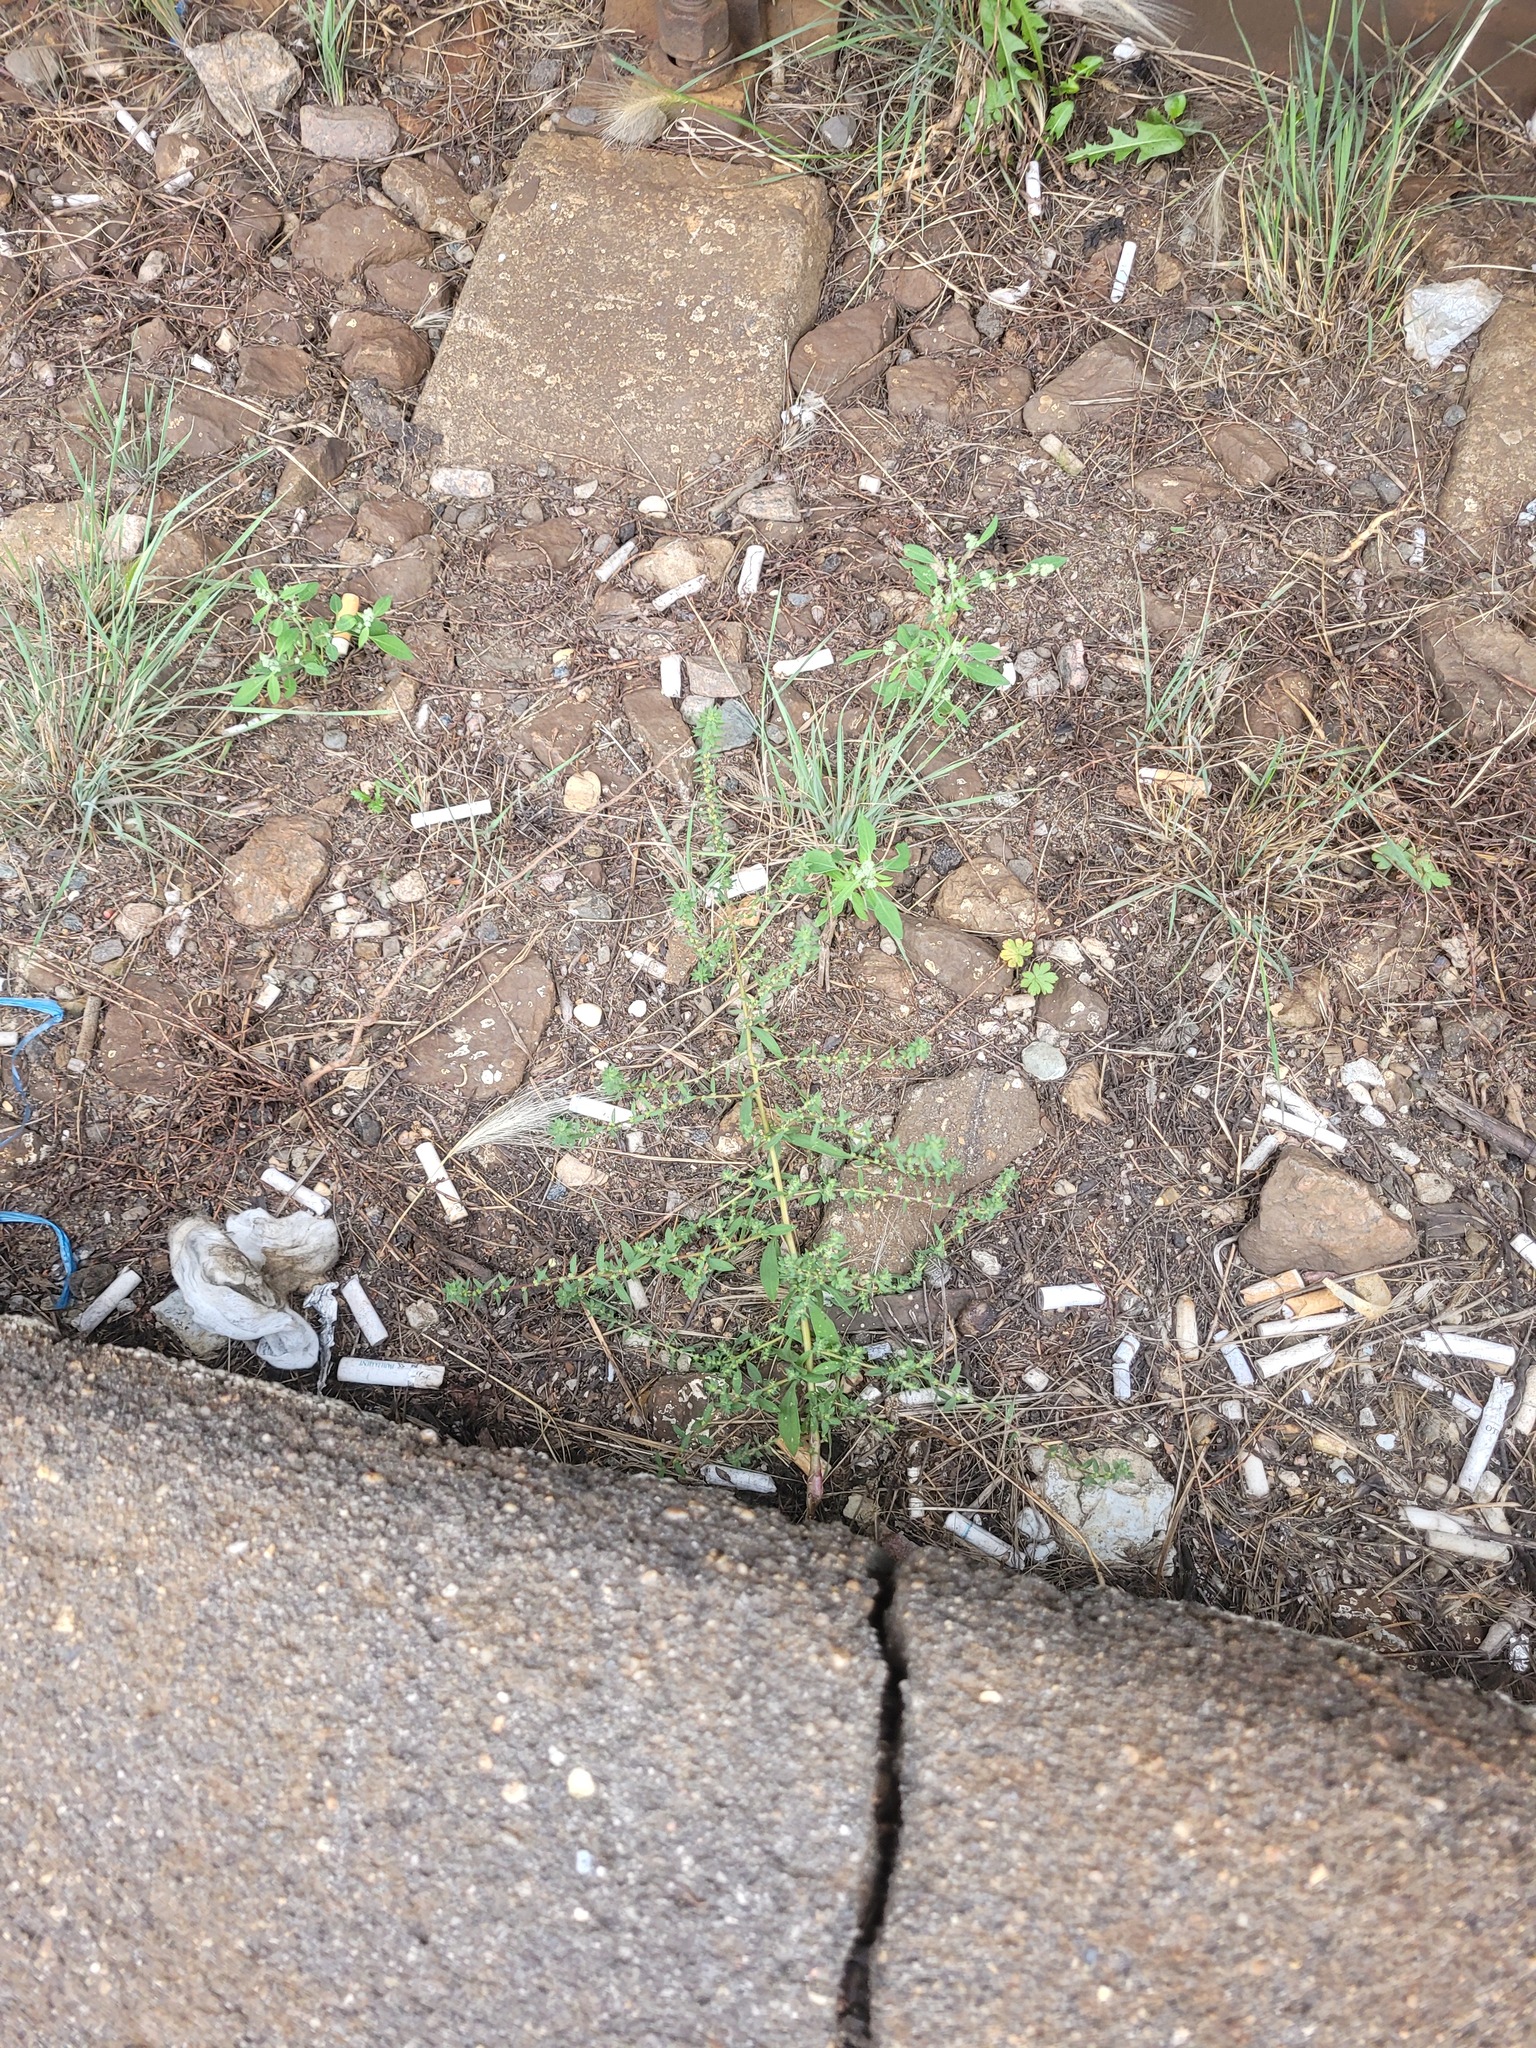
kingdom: Plantae
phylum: Tracheophyta
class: Magnoliopsida
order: Caryophyllales
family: Amaranthaceae
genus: Bassia
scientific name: Bassia scoparia
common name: Belvedere
